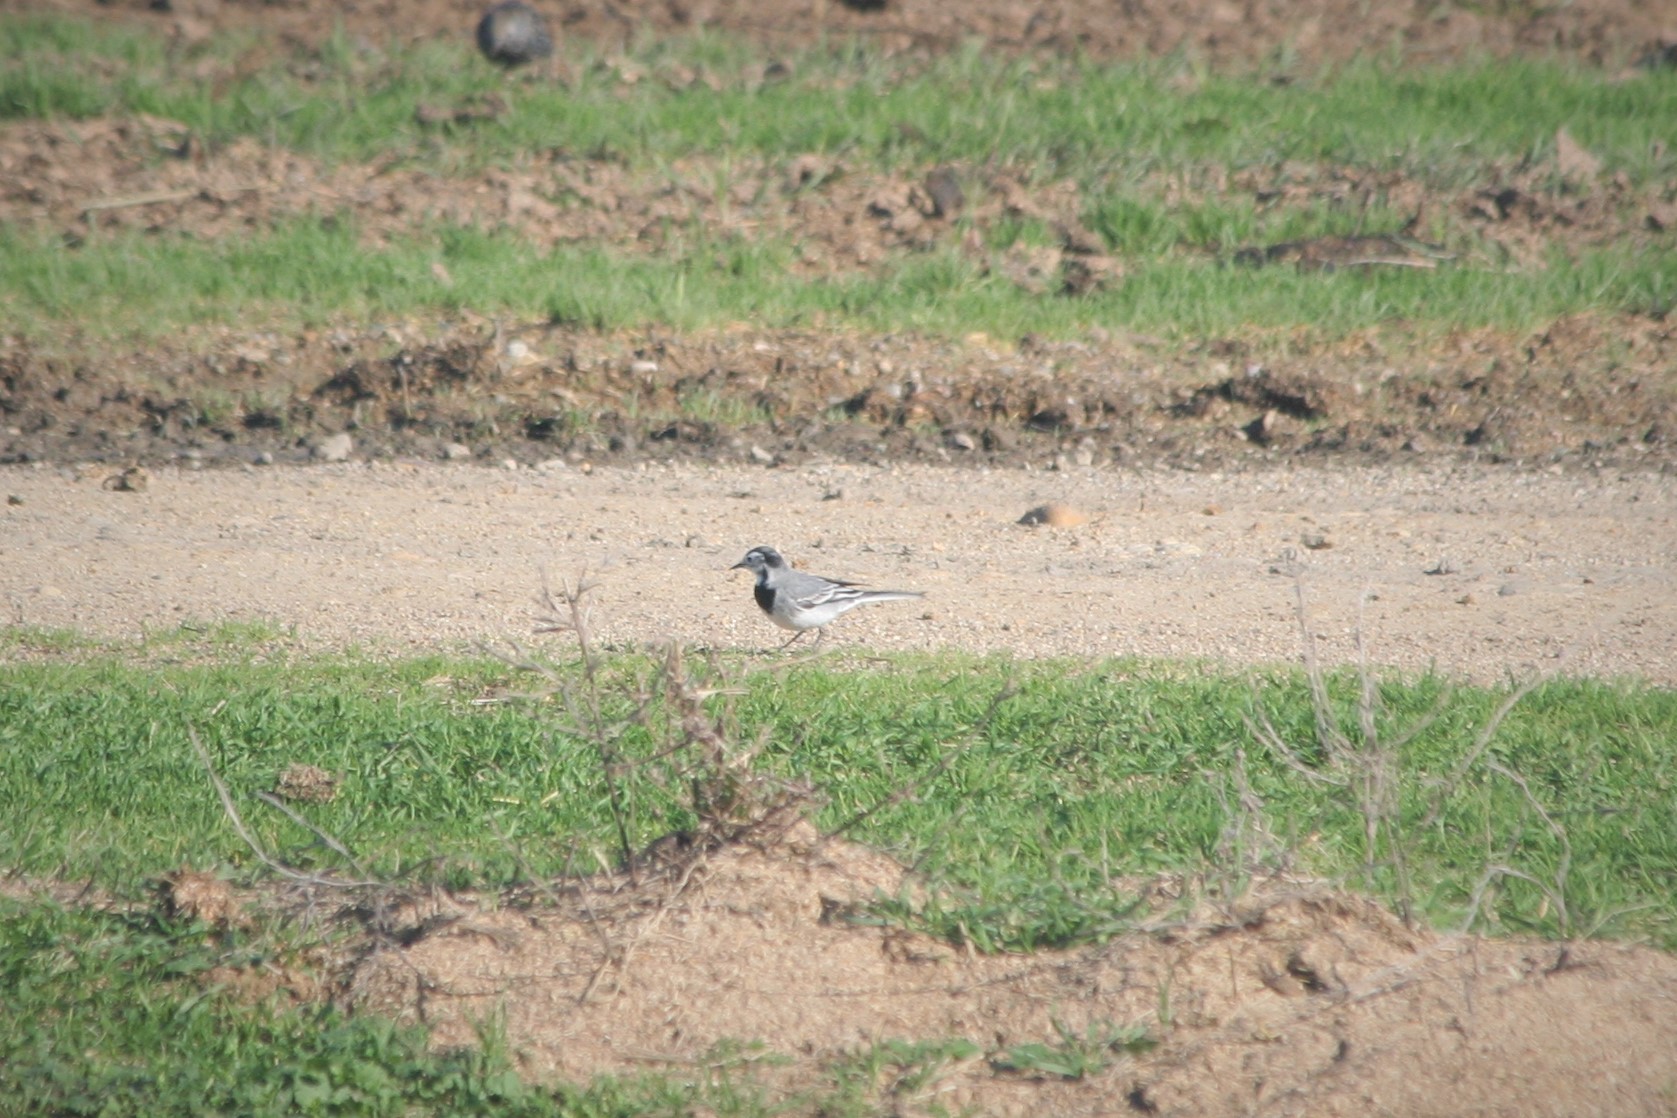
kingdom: Animalia
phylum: Chordata
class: Aves
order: Passeriformes
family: Motacillidae
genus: Motacilla
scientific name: Motacilla alba
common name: White wagtail
